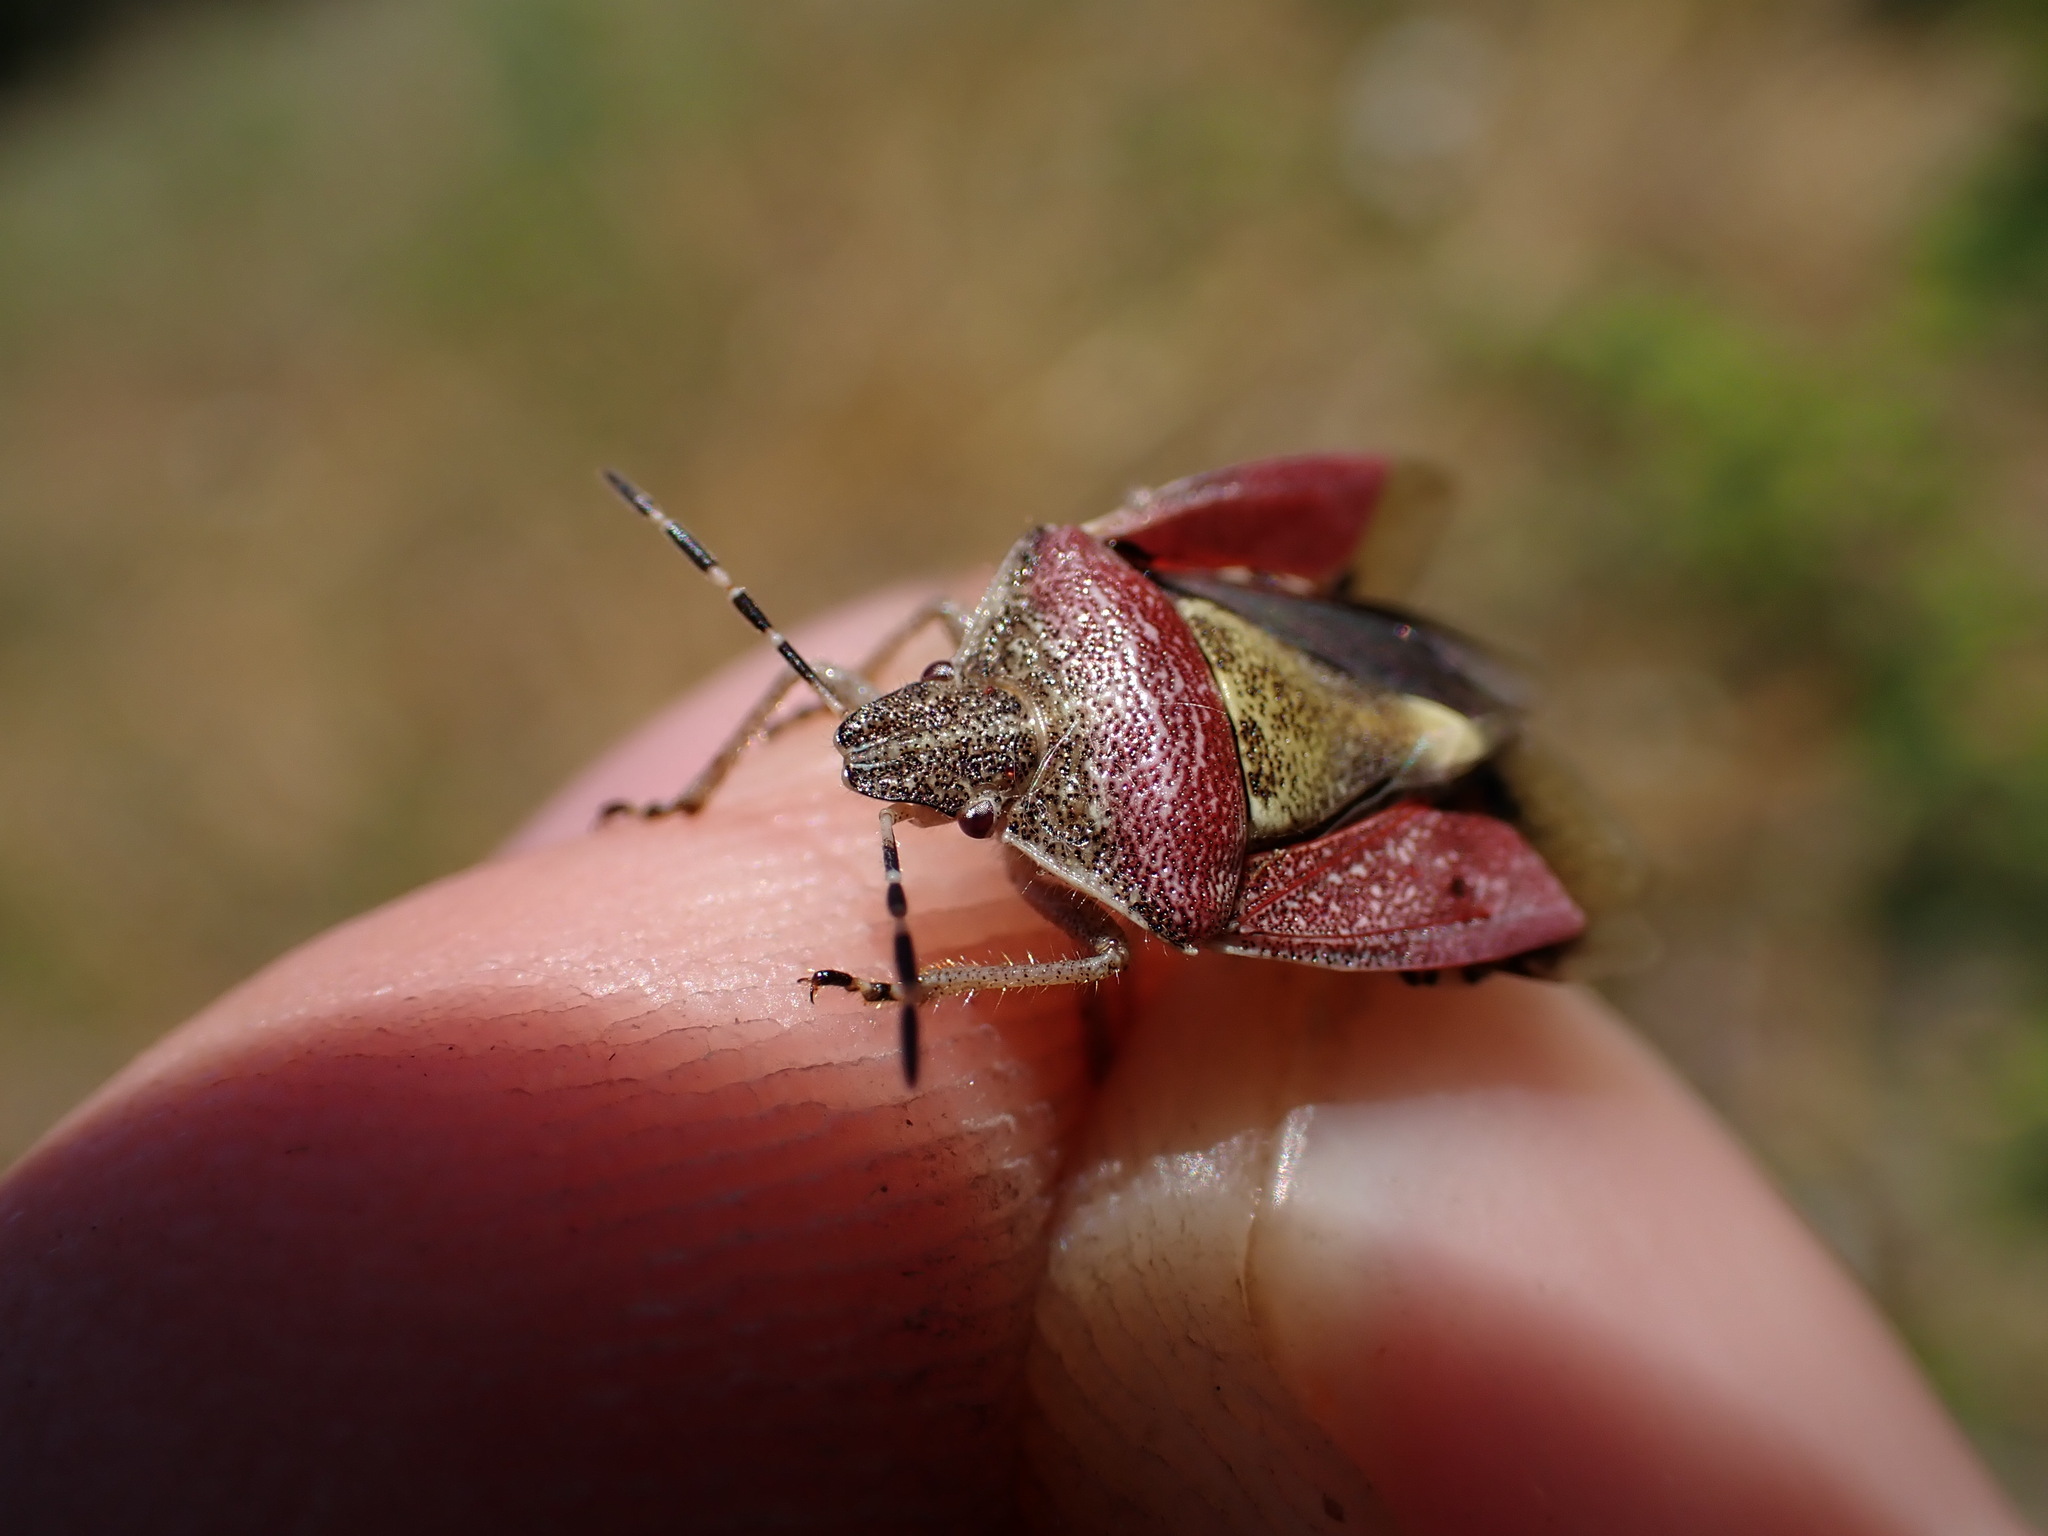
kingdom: Animalia
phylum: Arthropoda
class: Insecta
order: Hemiptera
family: Pentatomidae
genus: Dolycoris
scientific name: Dolycoris baccarum
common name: Sloe bug
